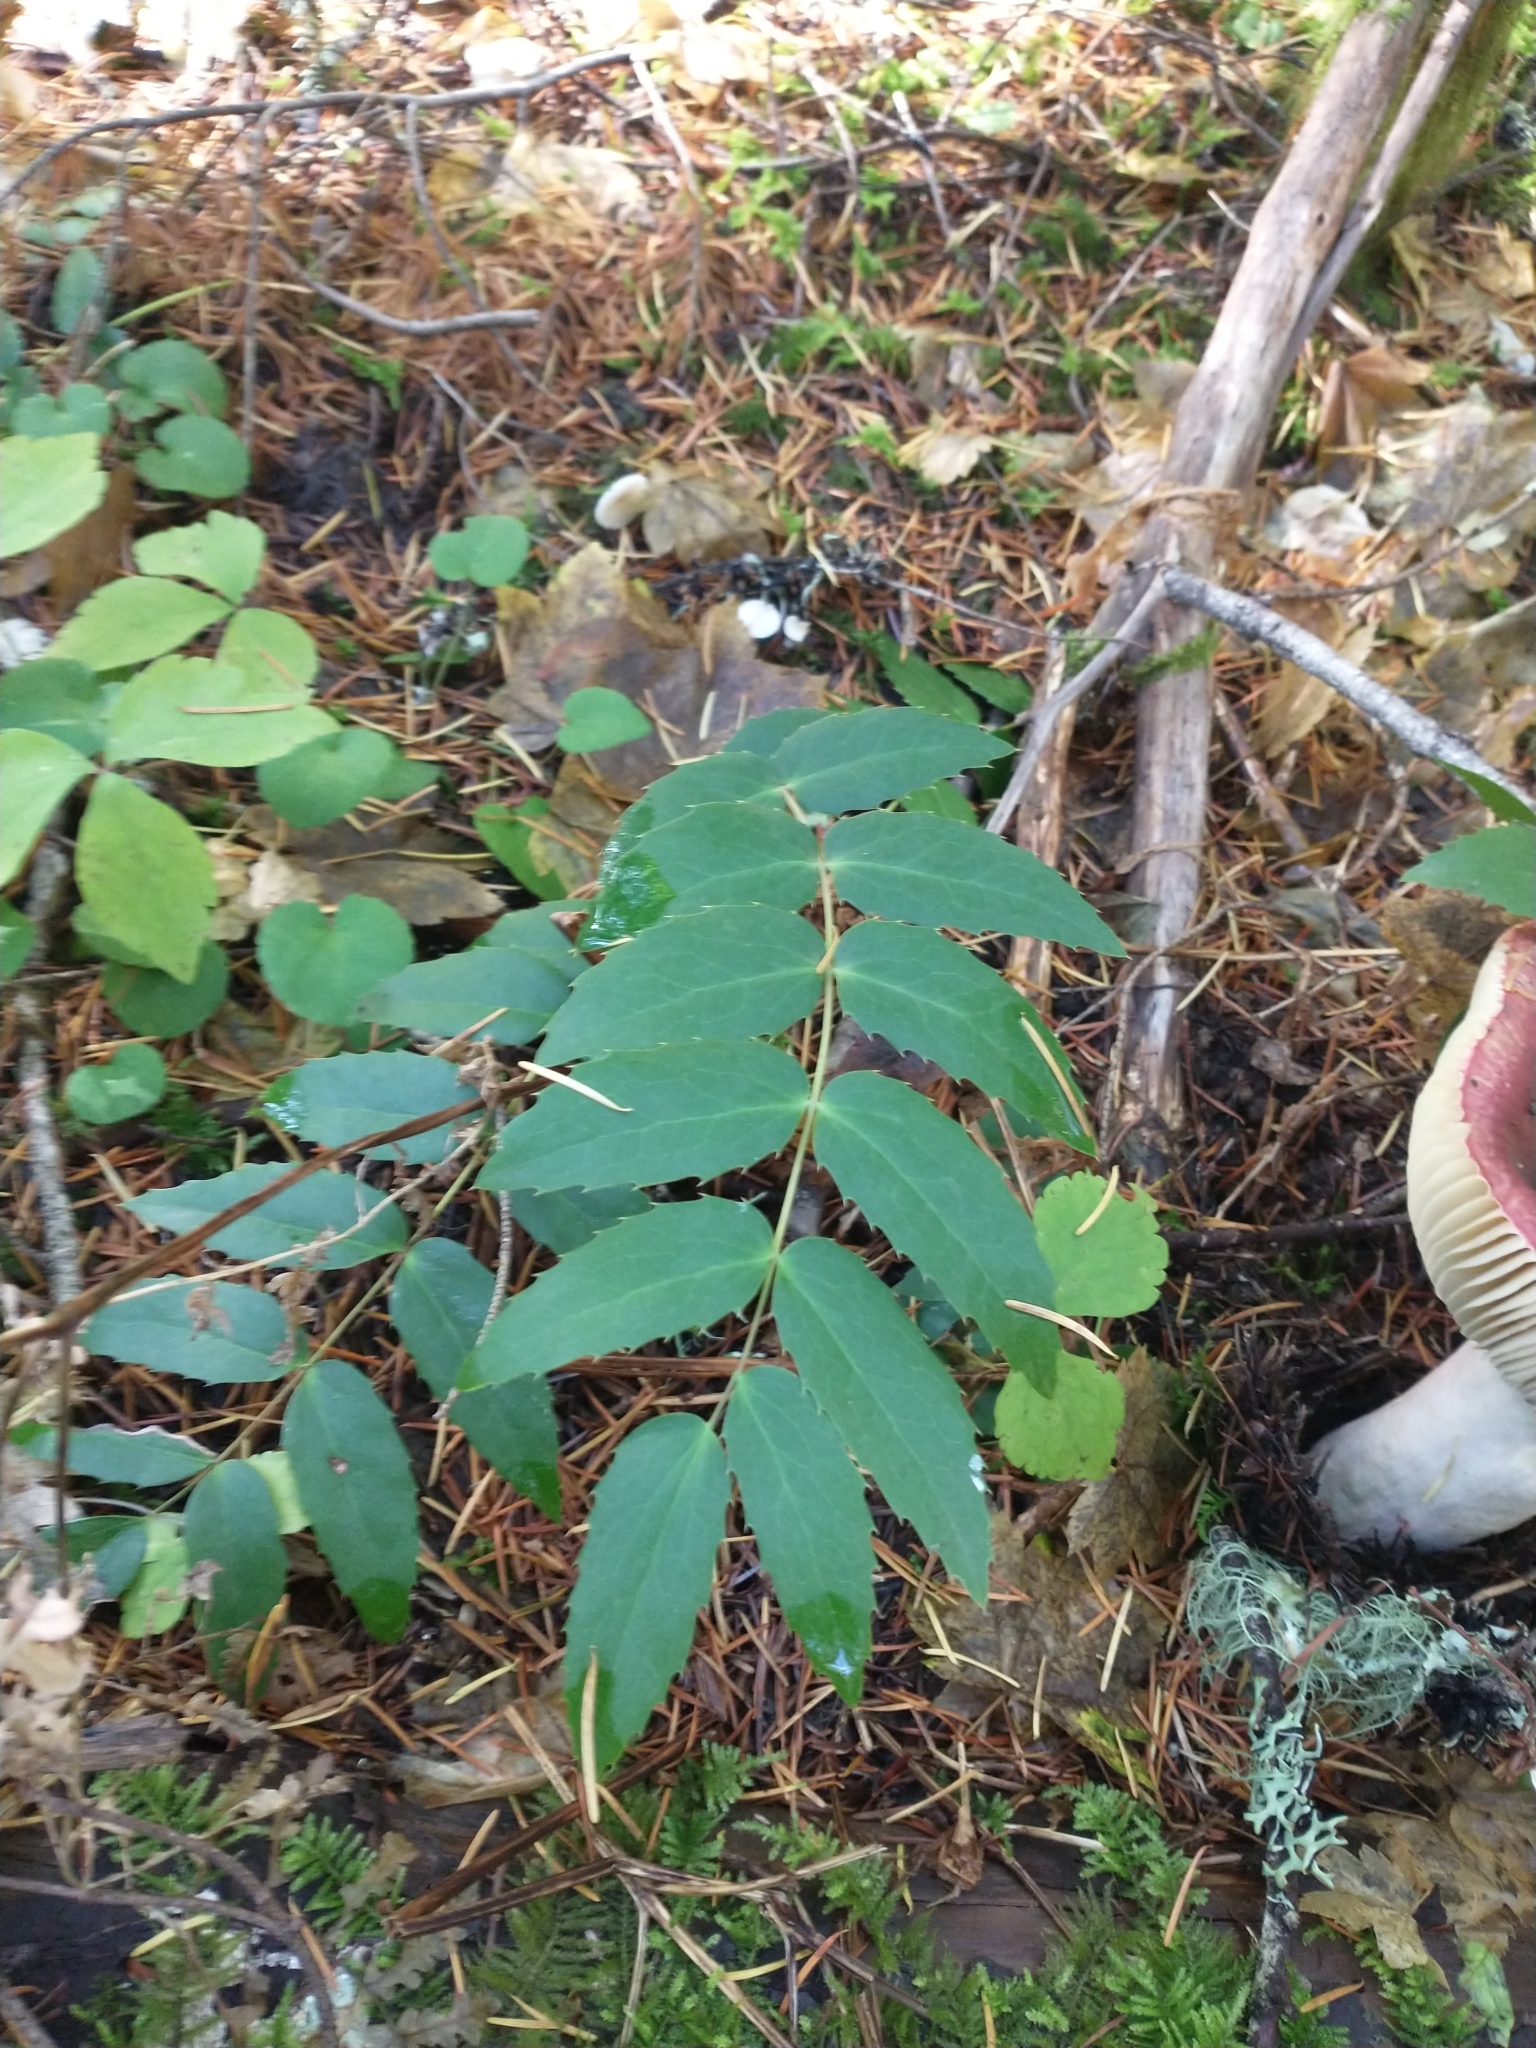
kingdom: Plantae
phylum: Tracheophyta
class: Magnoliopsida
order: Ranunculales
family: Berberidaceae
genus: Mahonia
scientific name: Mahonia nervosa
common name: Cascade oregon-grape
